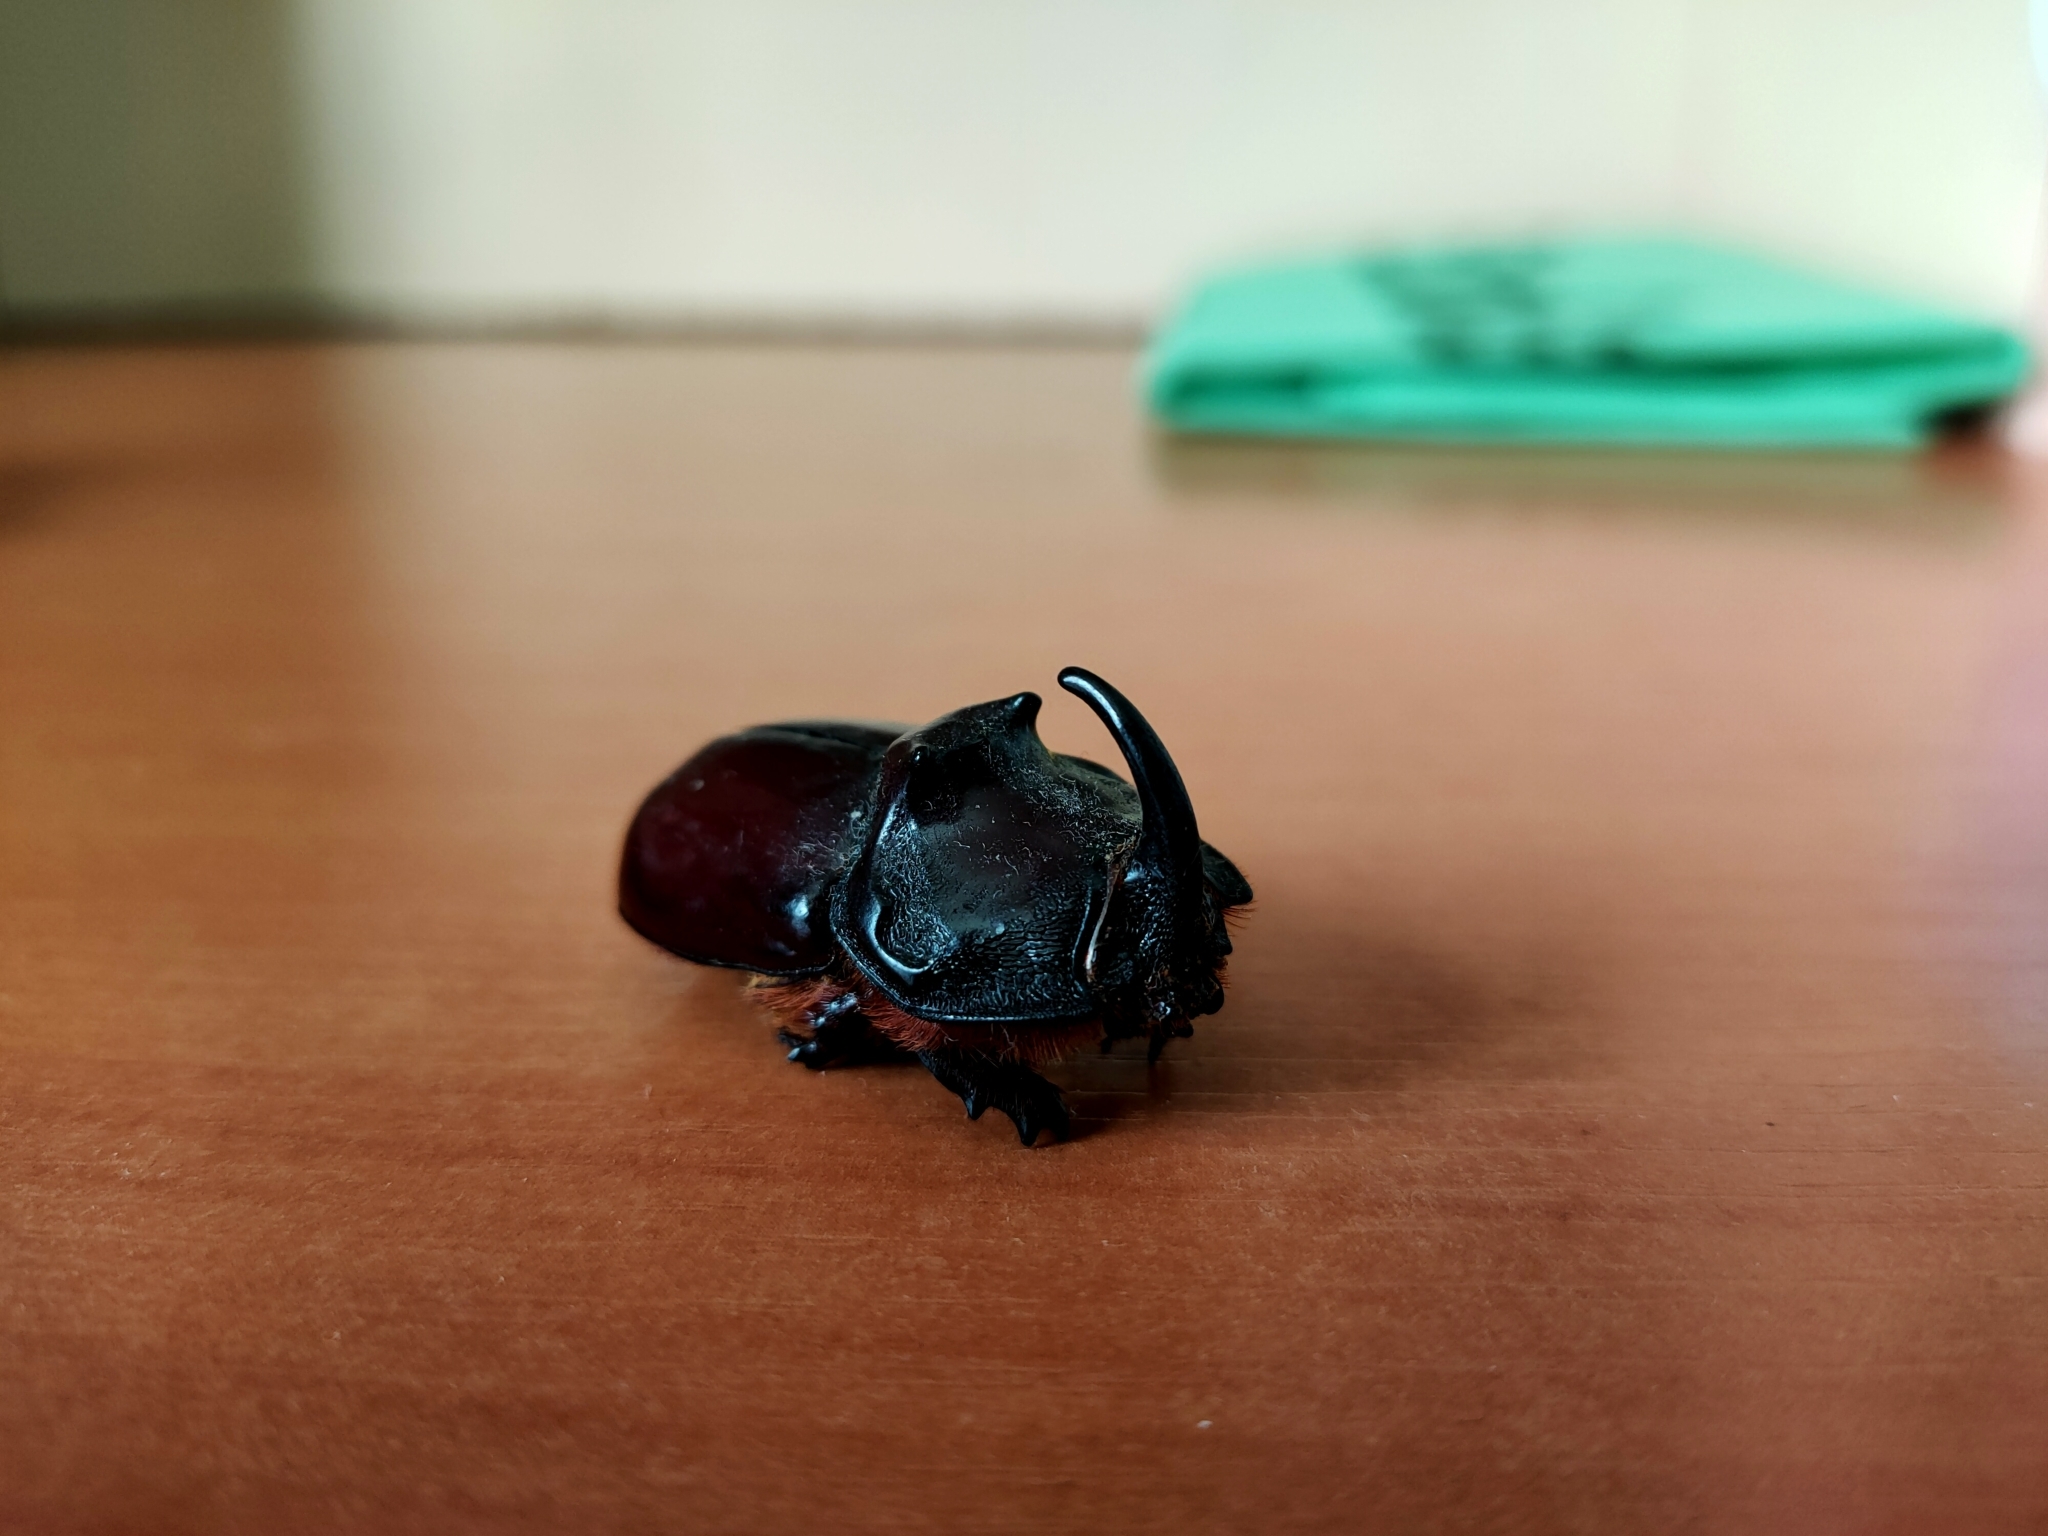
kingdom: Animalia
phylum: Arthropoda
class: Insecta
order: Coleoptera
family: Scarabaeidae
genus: Oryctes
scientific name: Oryctes nasicornis
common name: European rhinoceros beetle
